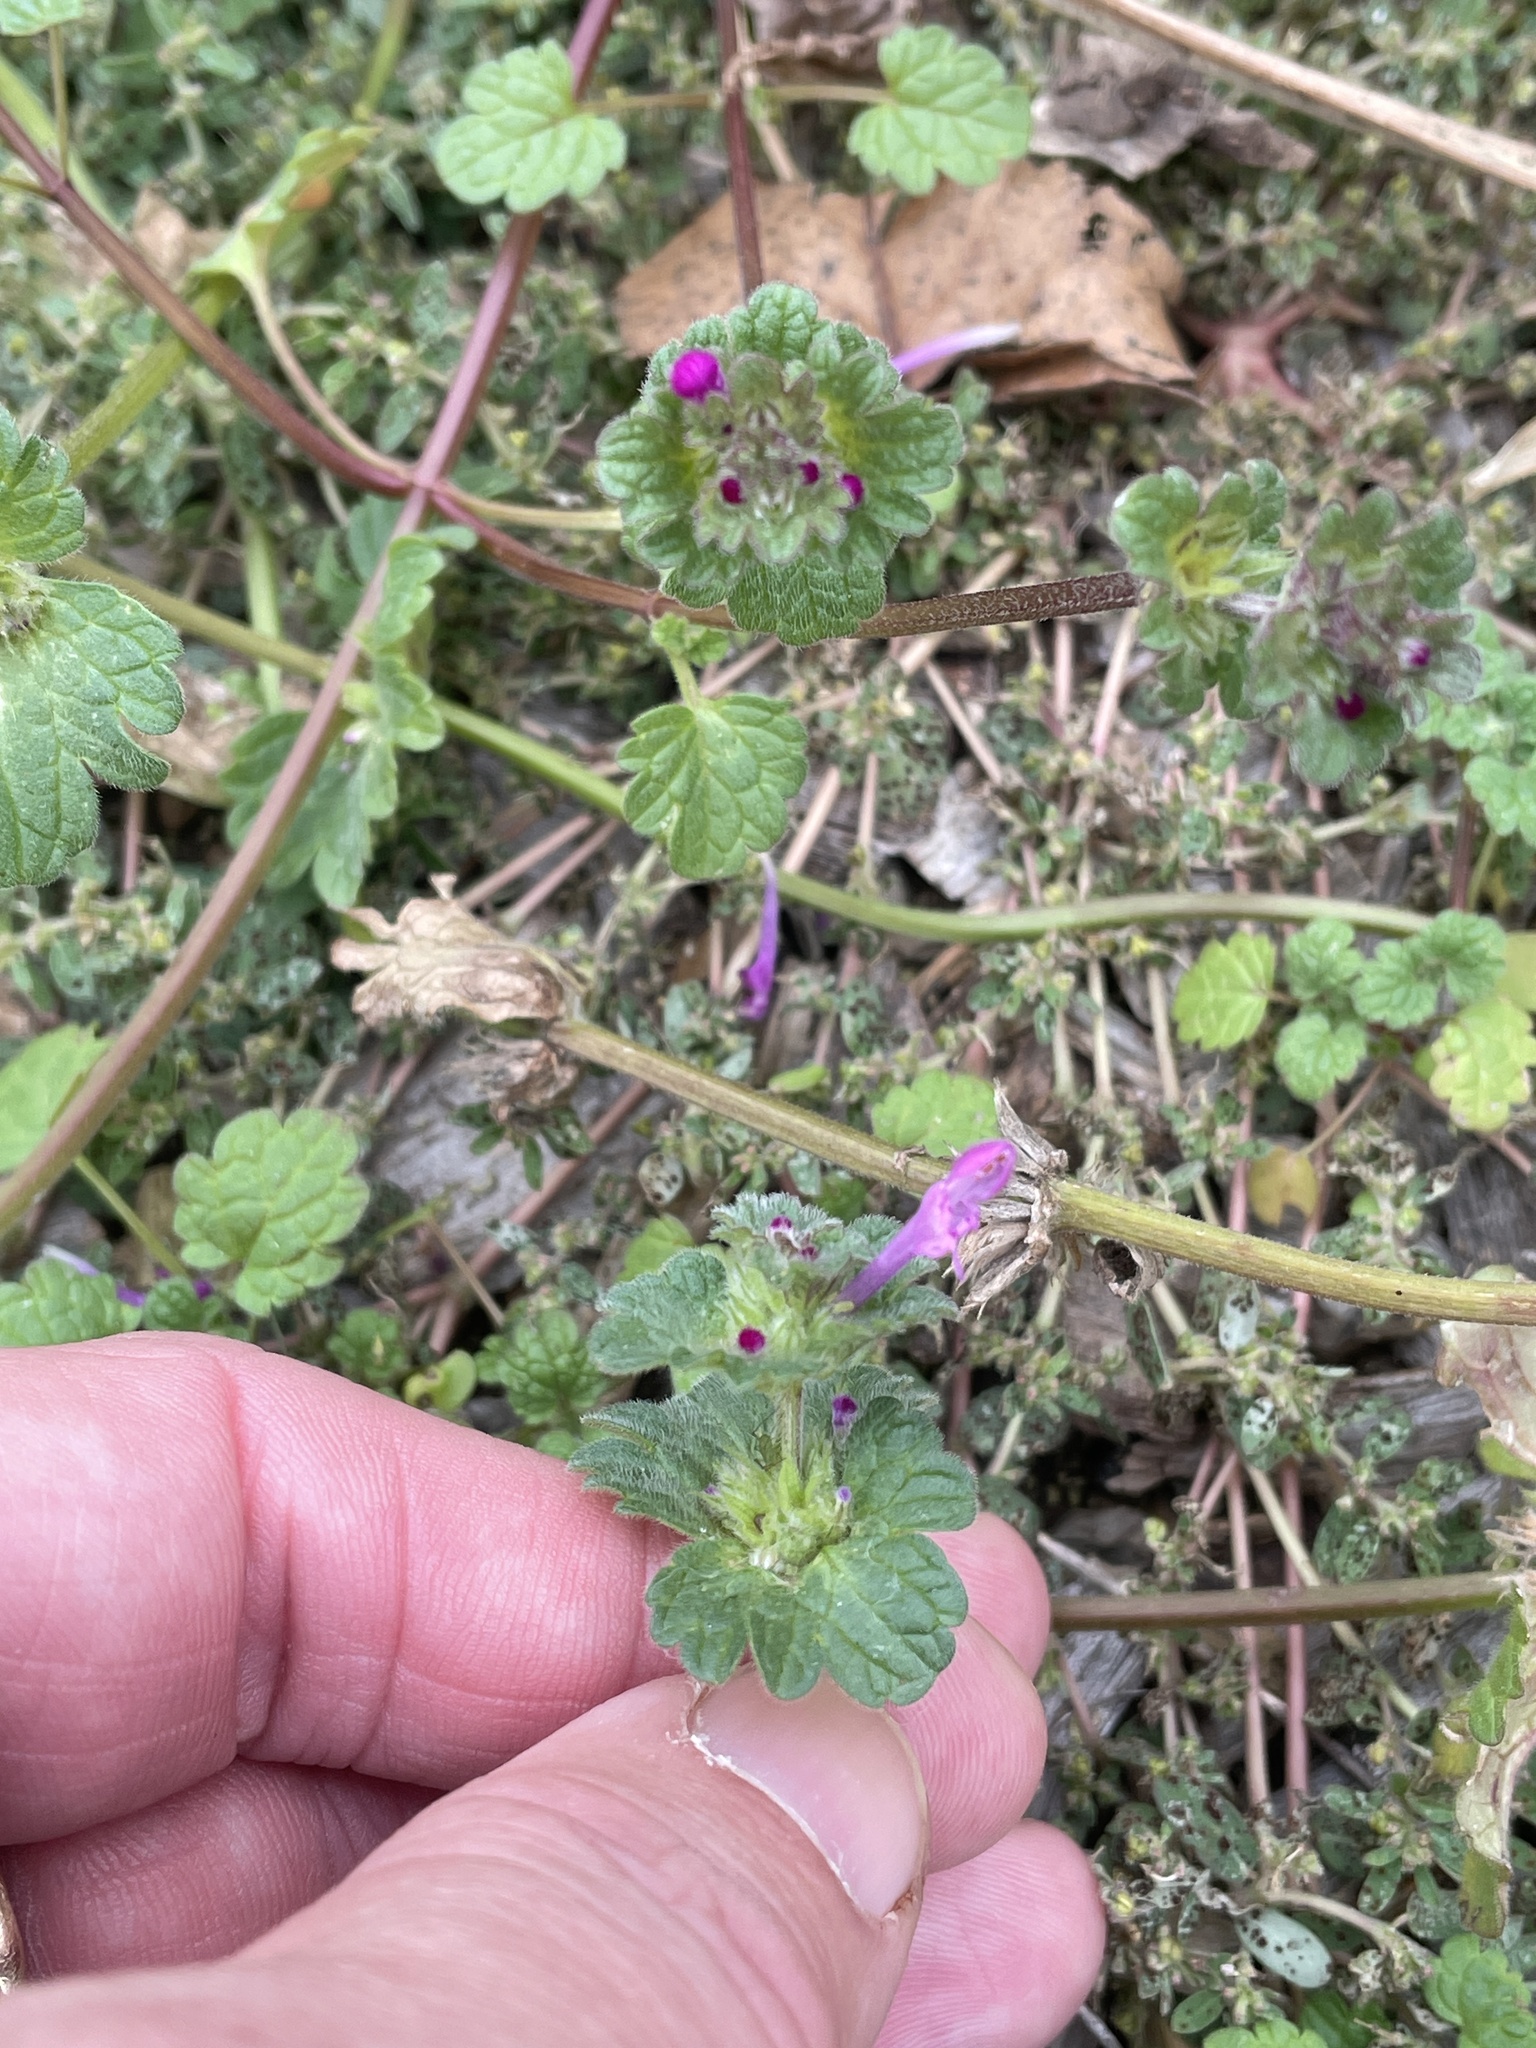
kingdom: Plantae
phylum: Tracheophyta
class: Magnoliopsida
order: Lamiales
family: Lamiaceae
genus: Lamium
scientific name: Lamium amplexicaule
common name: Henbit dead-nettle
